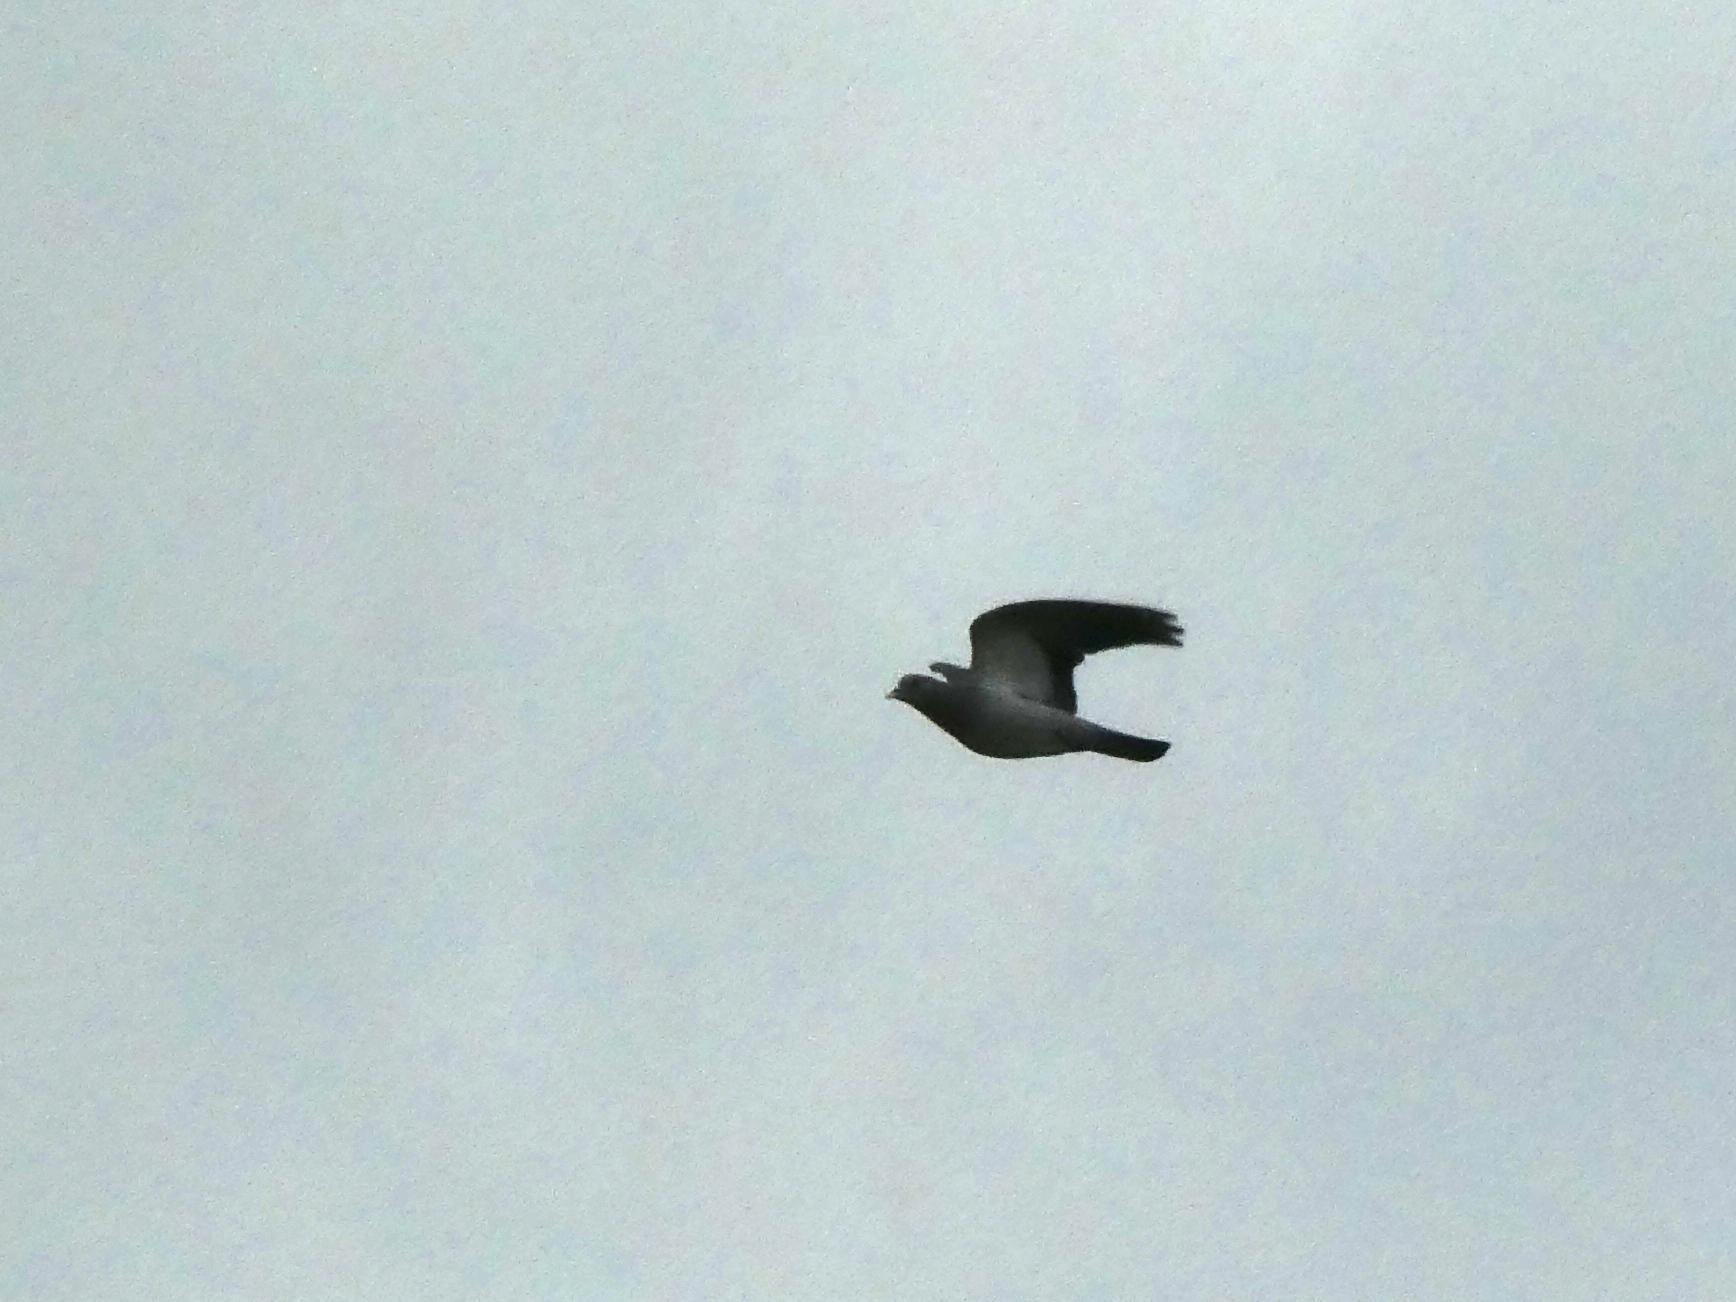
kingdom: Animalia
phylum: Chordata
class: Aves
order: Columbiformes
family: Columbidae
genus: Columba
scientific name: Columba oenas
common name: Stock dove
